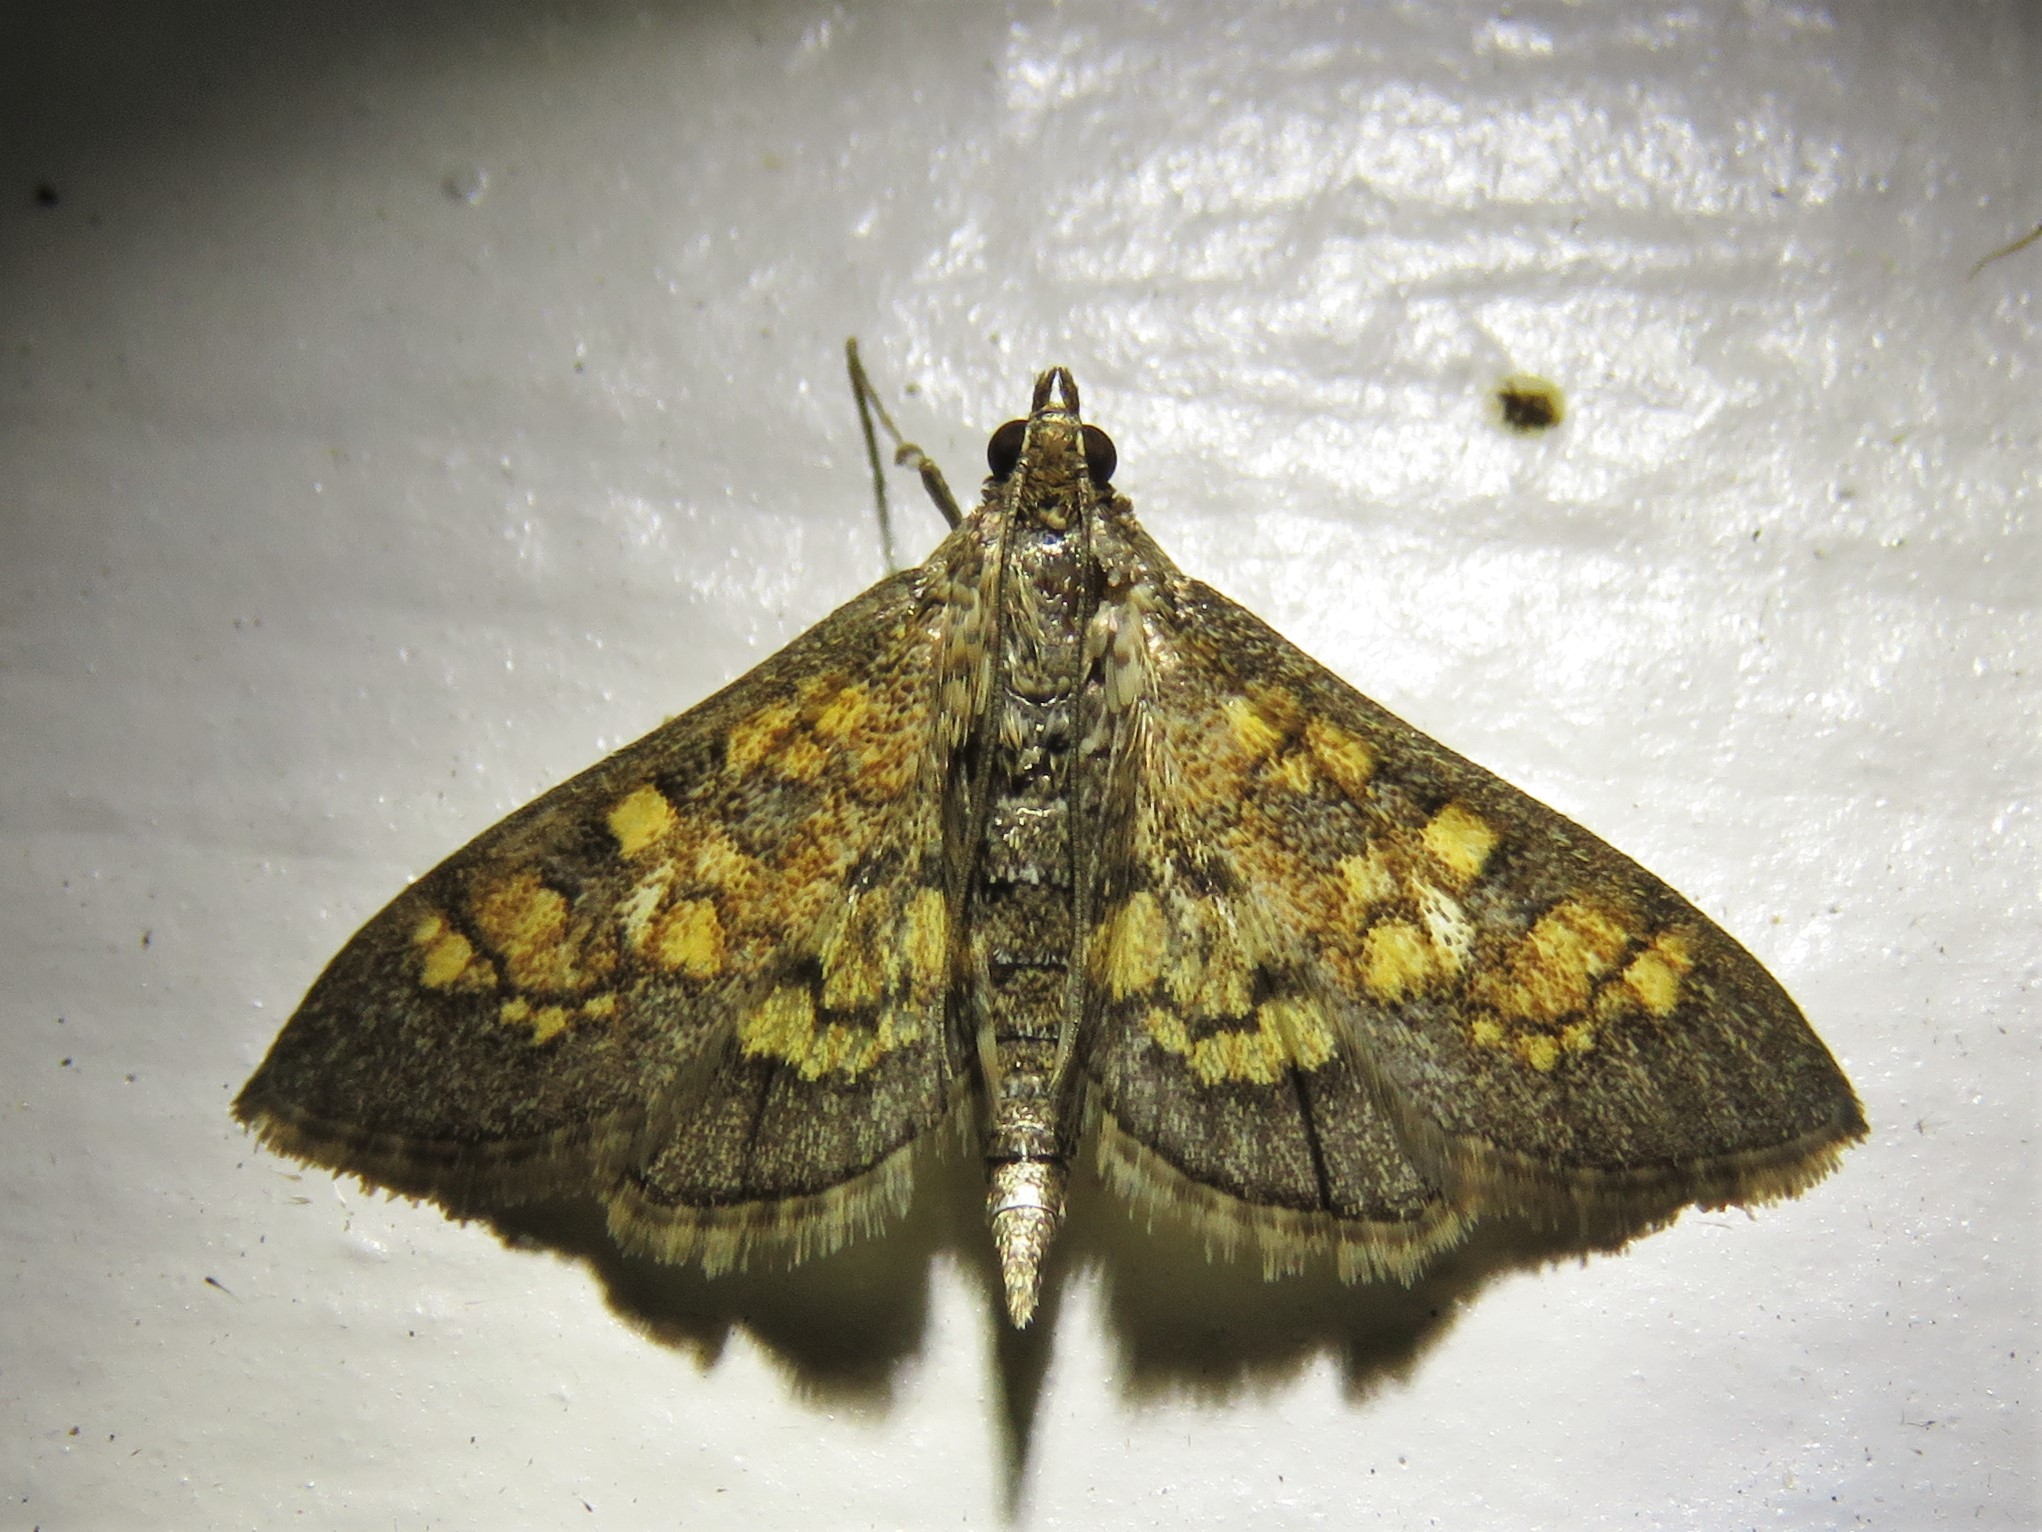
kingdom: Animalia
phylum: Arthropoda
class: Insecta
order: Lepidoptera
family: Crambidae
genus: Epipagis
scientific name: Epipagis adipaloides
